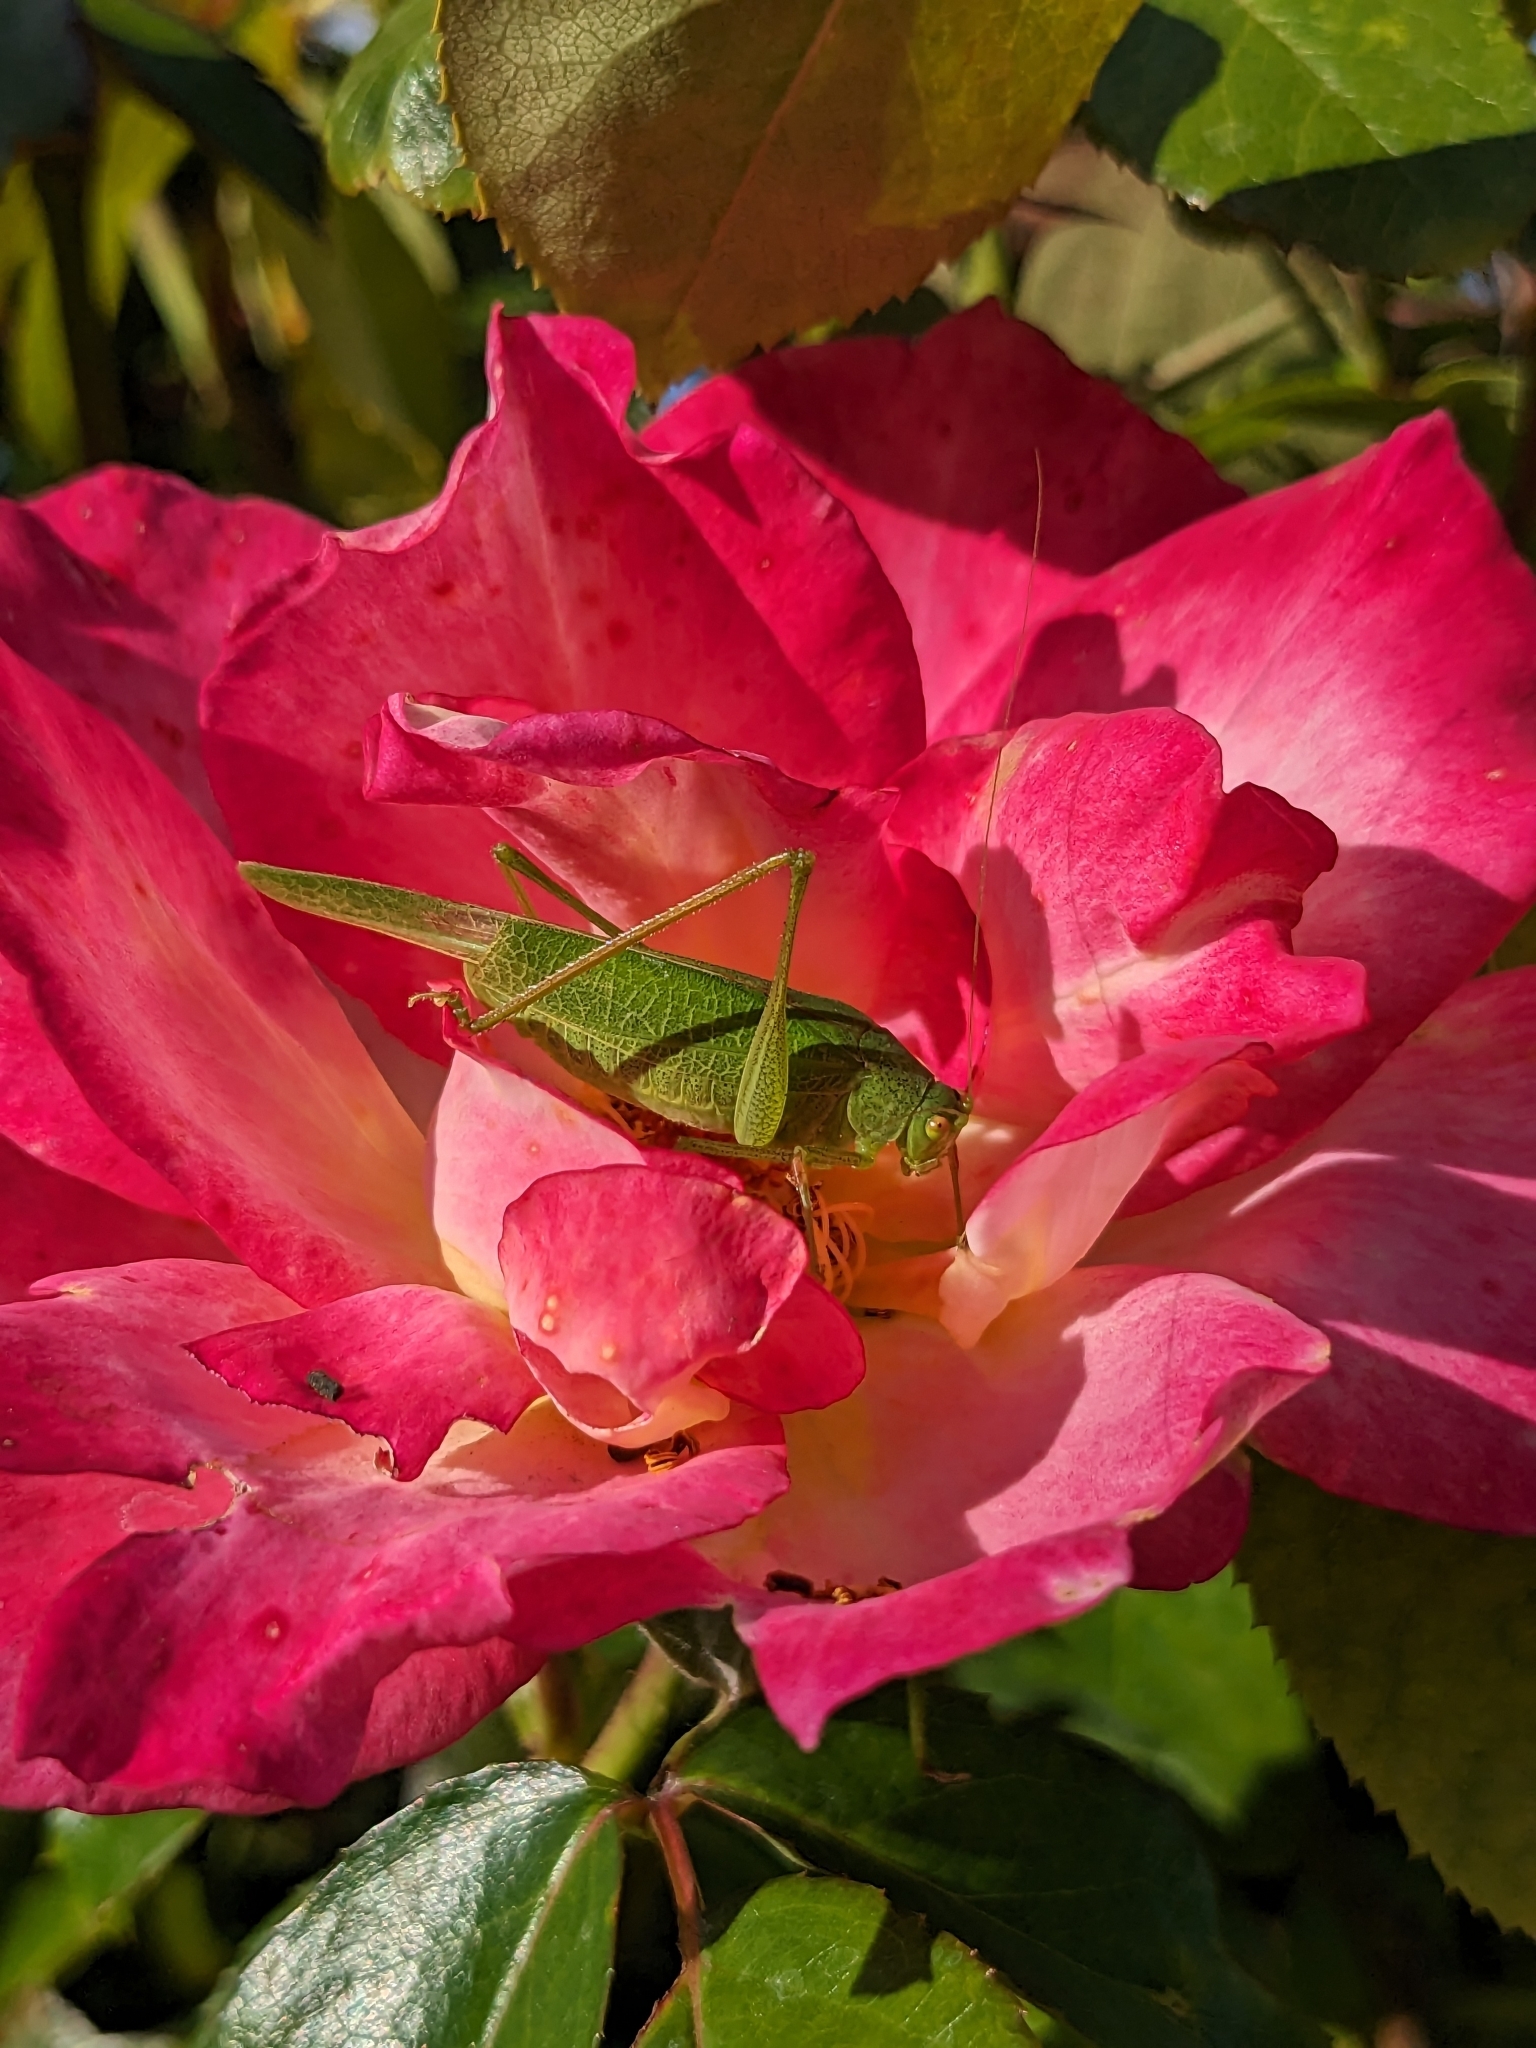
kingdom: Animalia
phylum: Arthropoda
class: Insecta
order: Orthoptera
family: Tettigoniidae
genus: Phaneroptera
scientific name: Phaneroptera nana
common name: Southern sickle bush-cricket
